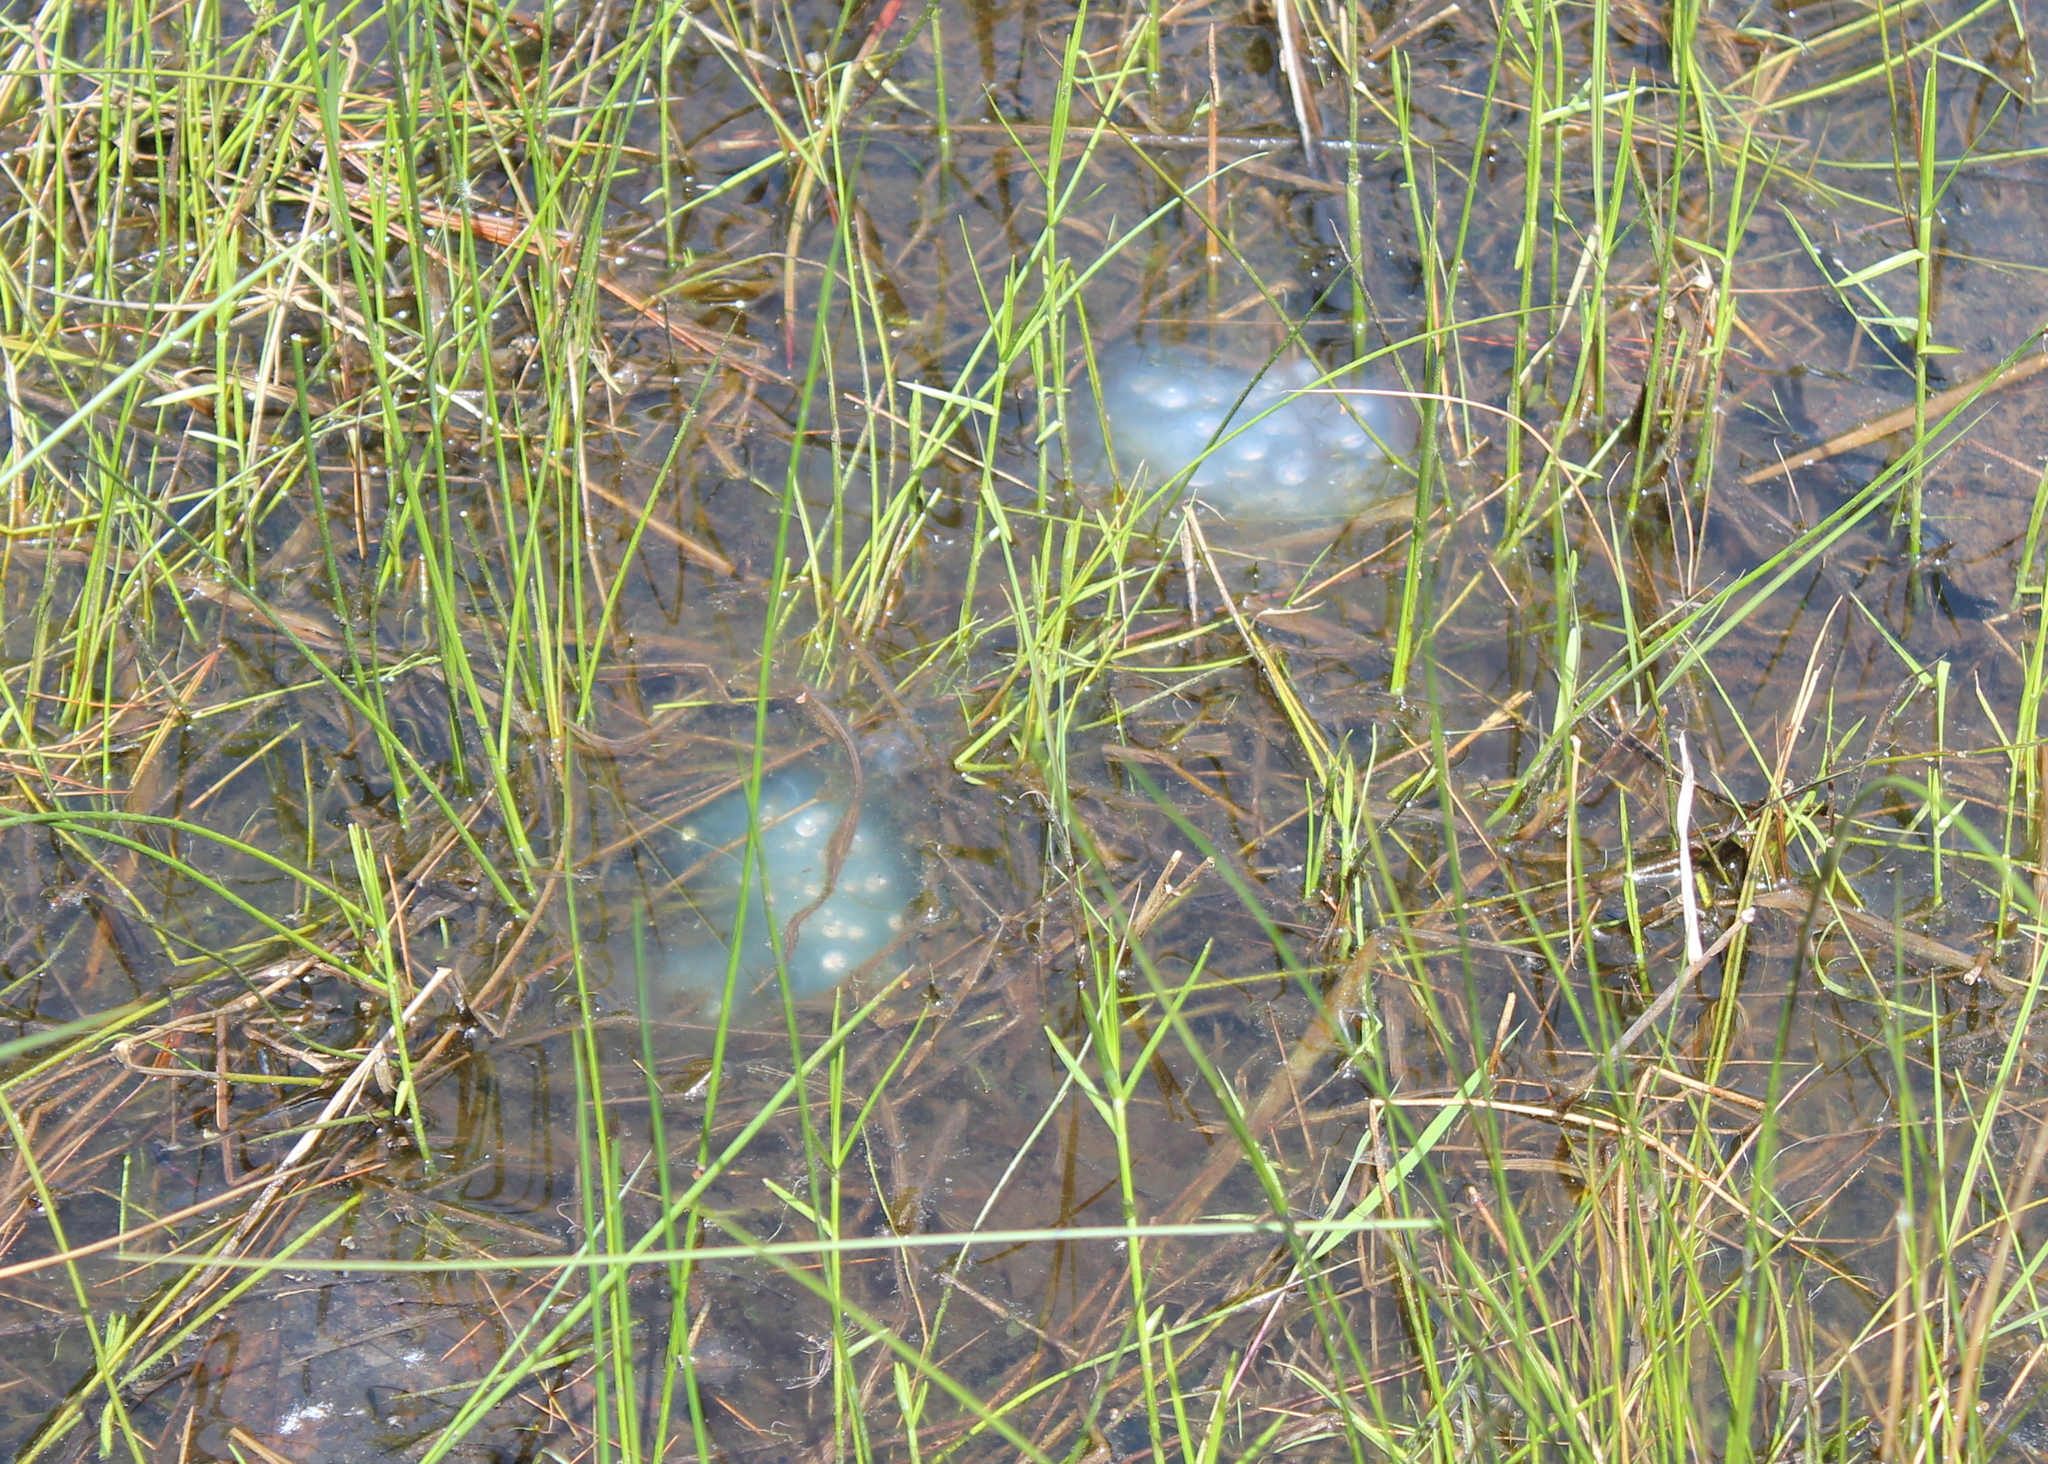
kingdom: Animalia
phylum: Chordata
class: Amphibia
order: Caudata
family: Ambystomatidae
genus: Ambystoma
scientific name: Ambystoma maculatum
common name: Spotted salamander
